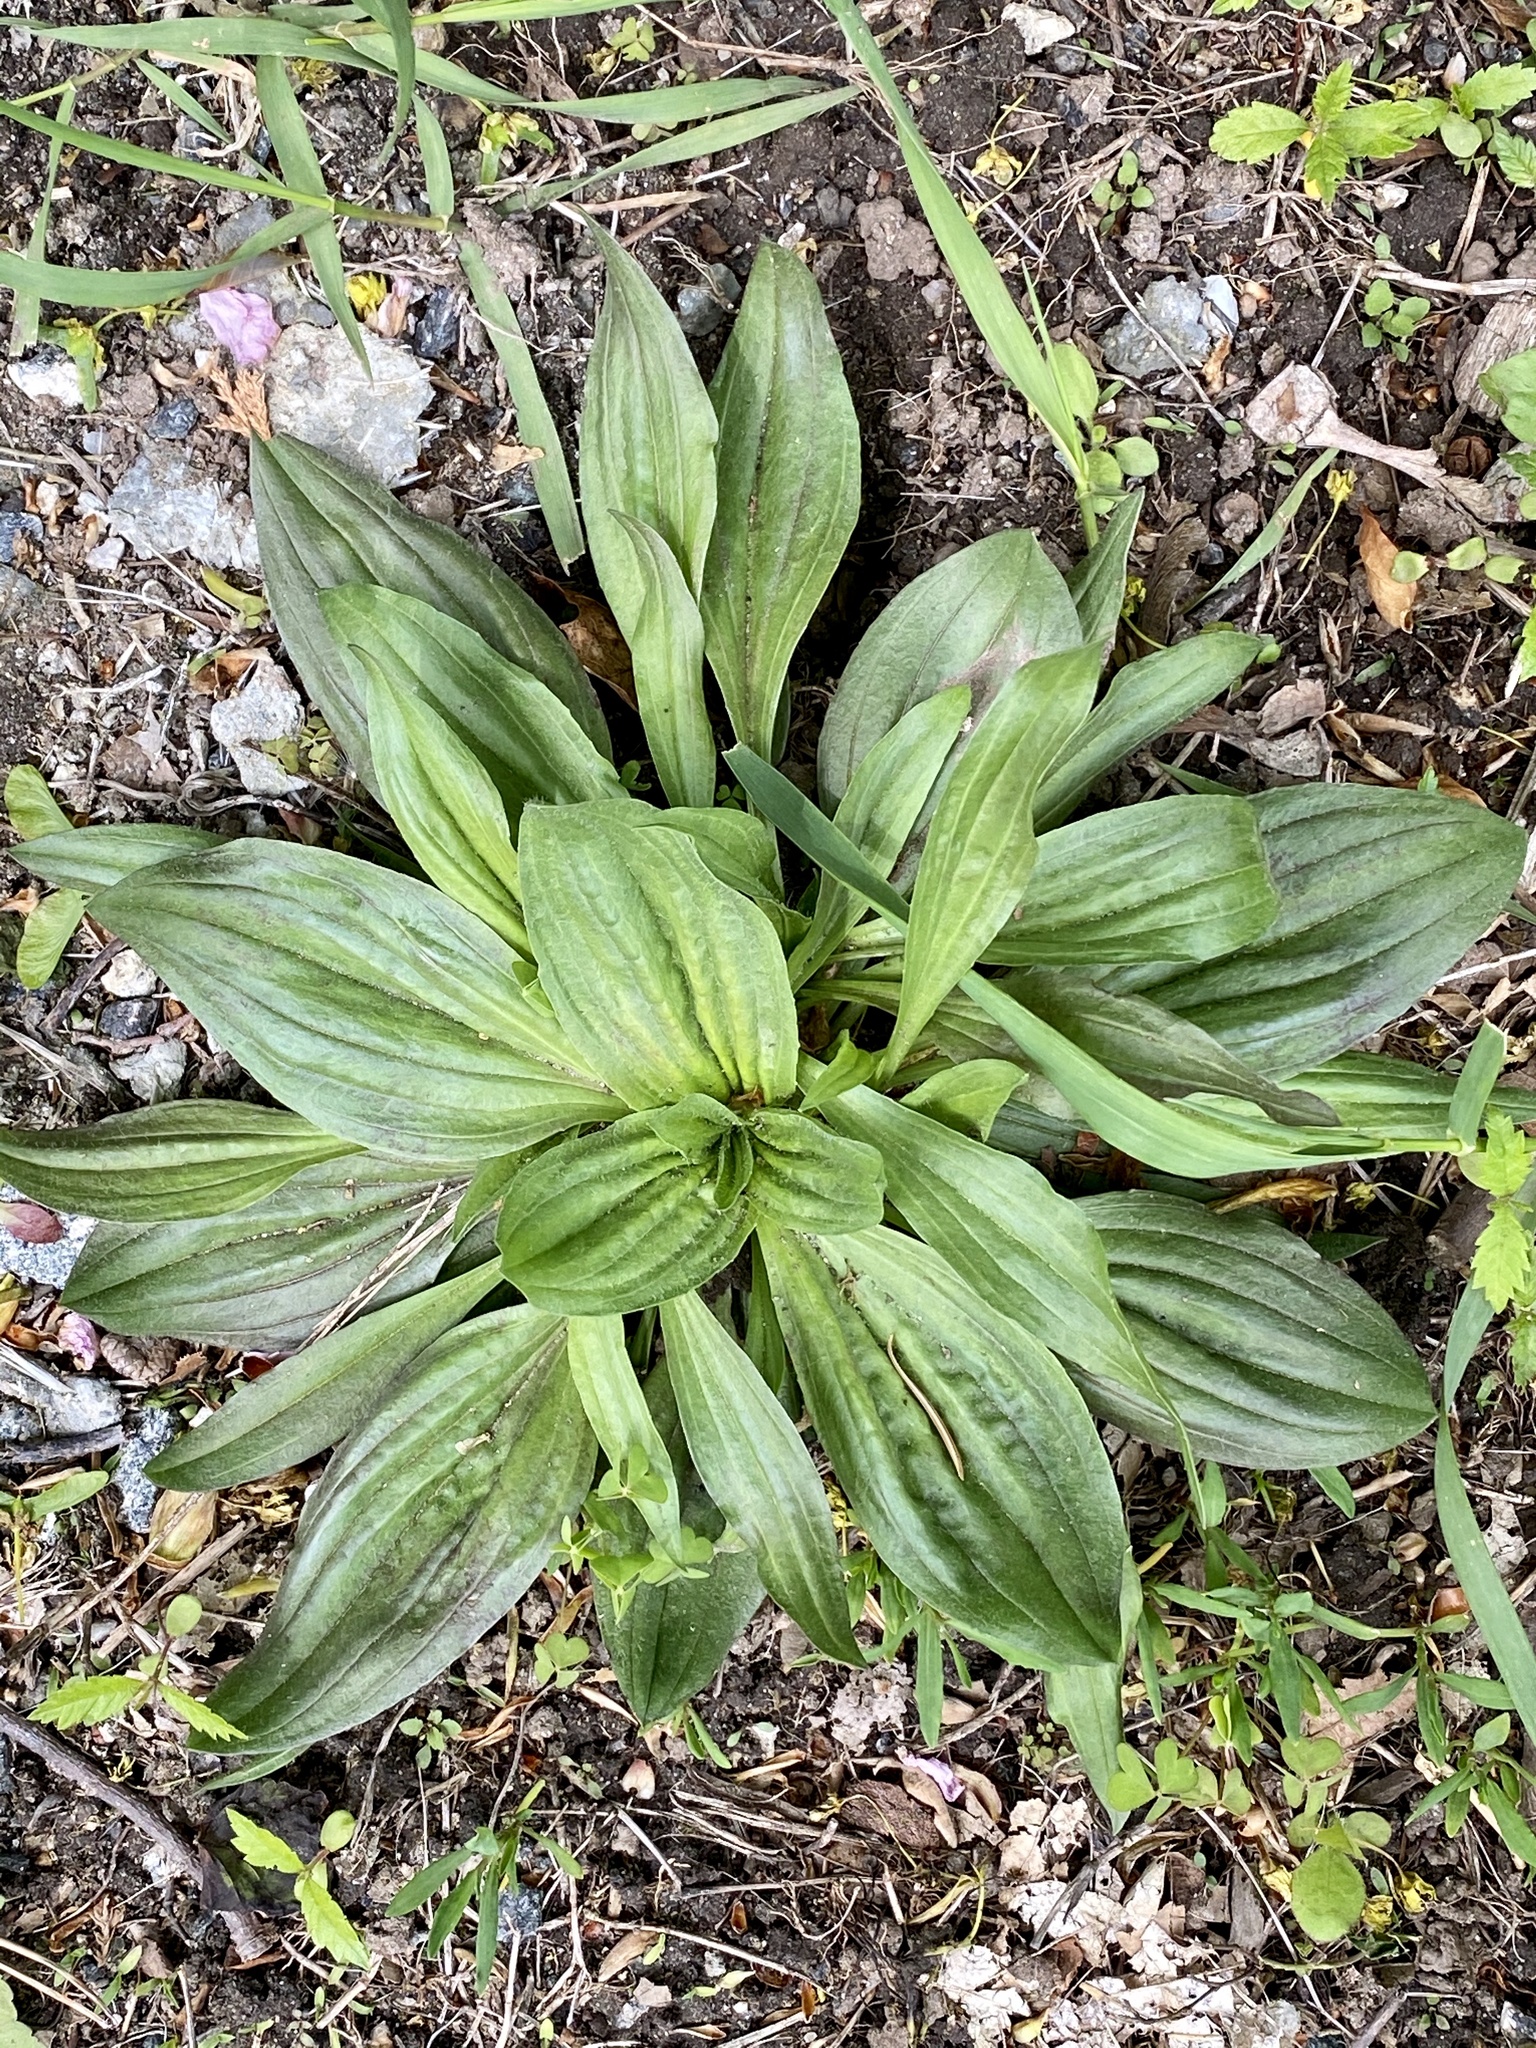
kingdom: Plantae
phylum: Tracheophyta
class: Magnoliopsida
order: Lamiales
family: Plantaginaceae
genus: Plantago
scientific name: Plantago lanceolata
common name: Ribwort plantain
